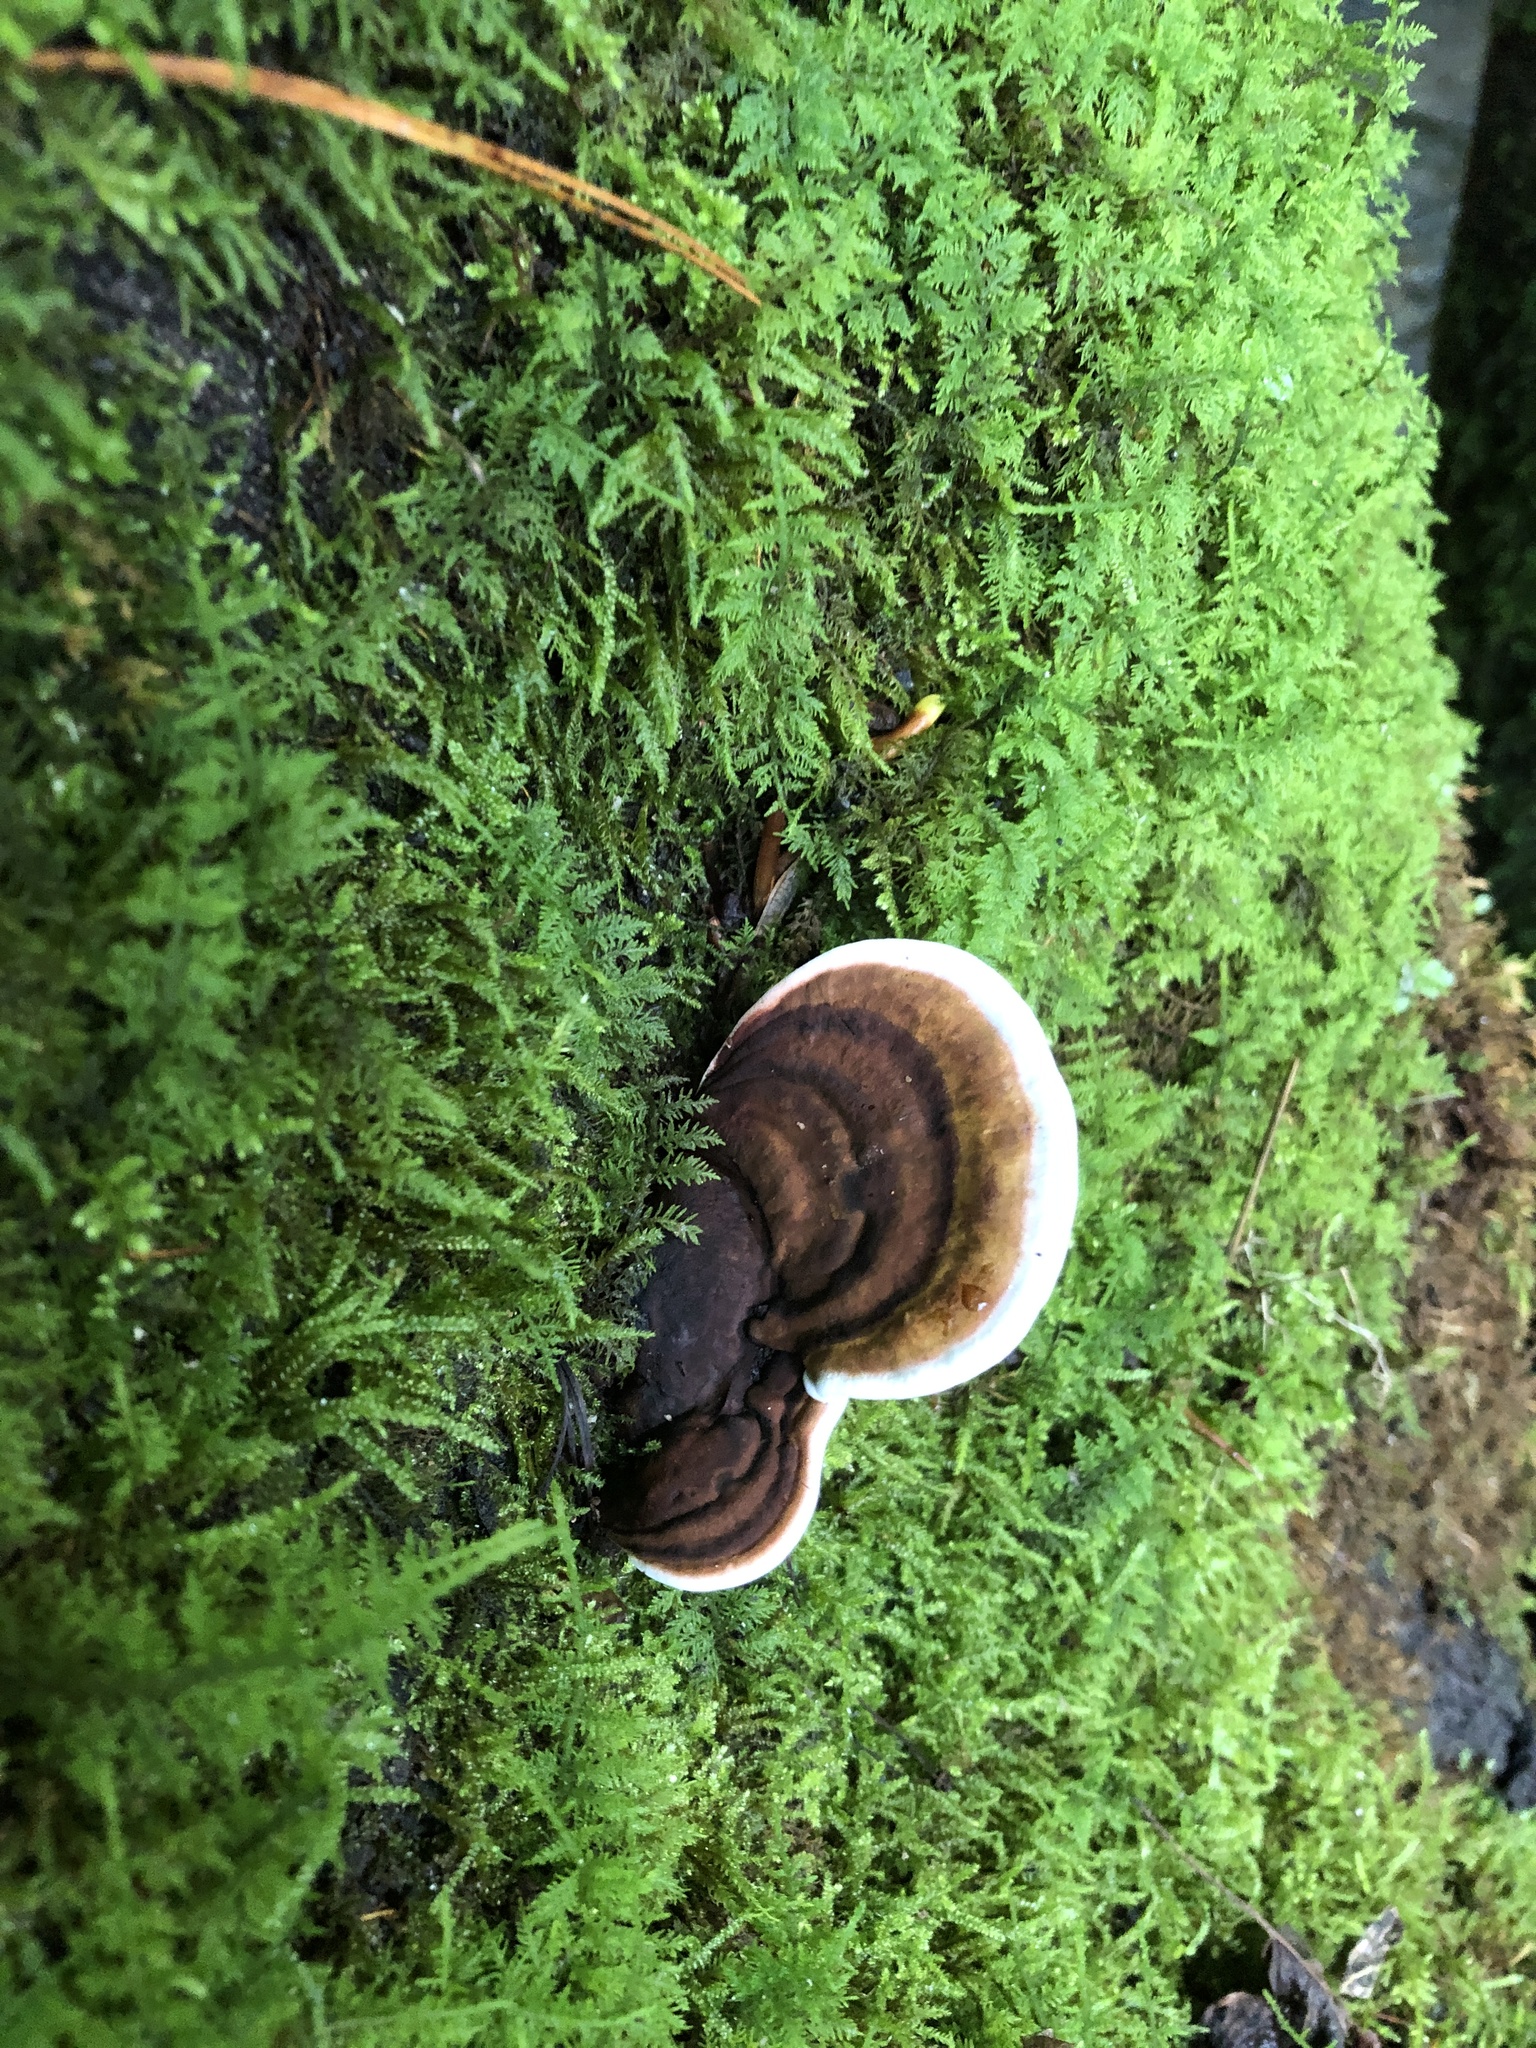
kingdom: Fungi
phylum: Basidiomycota
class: Agaricomycetes
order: Polyporales
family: Polyporaceae
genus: Ganoderma
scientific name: Ganoderma lobatum
